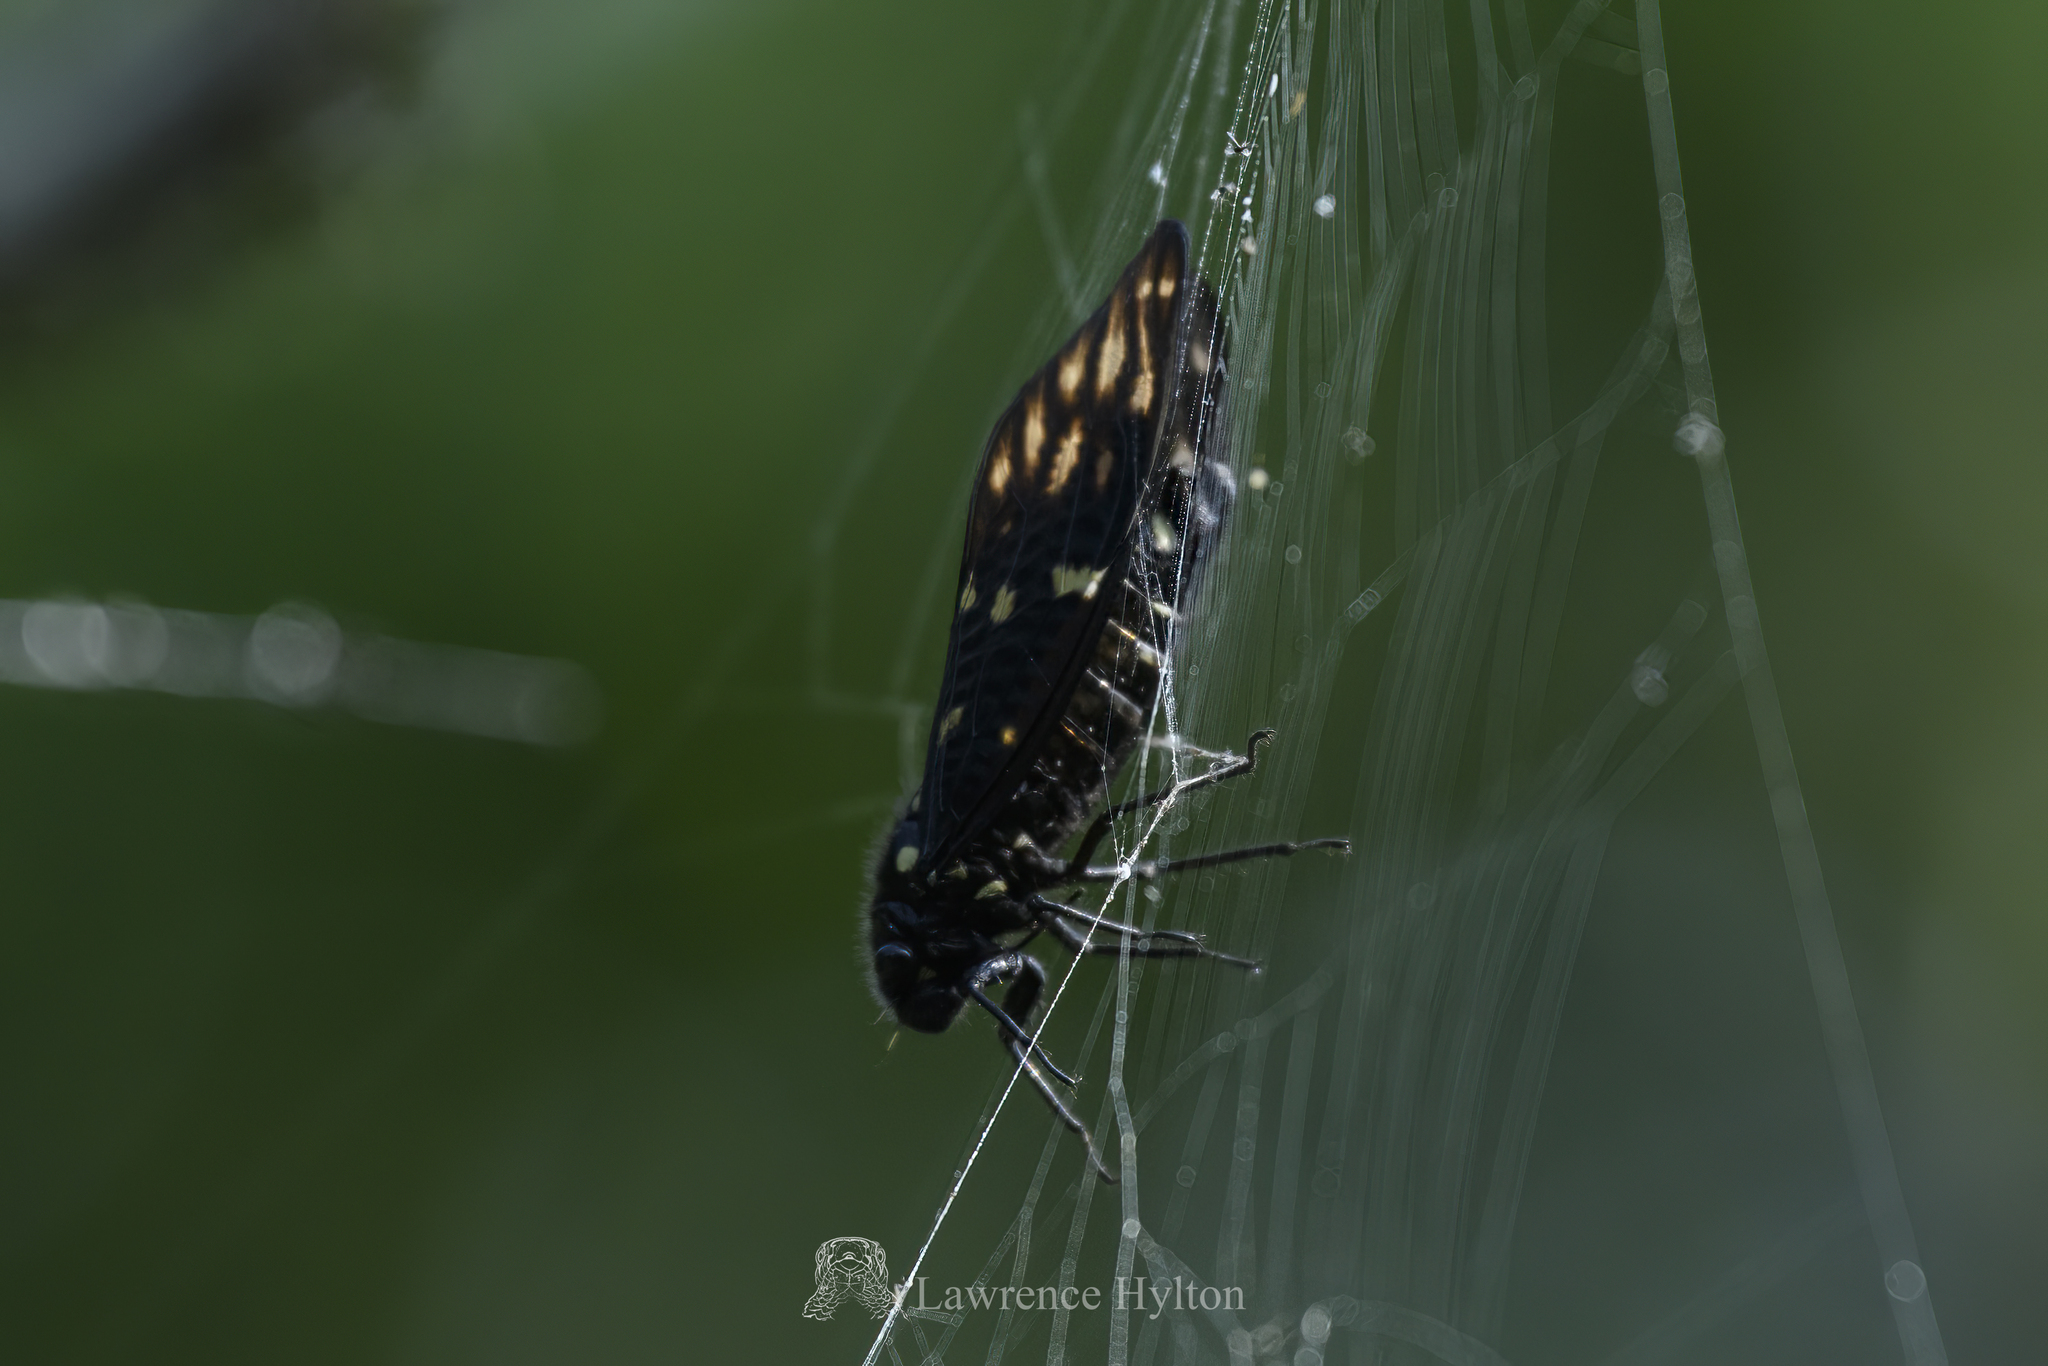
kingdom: Animalia
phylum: Arthropoda
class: Insecta
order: Hemiptera
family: Cicadidae
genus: Gaeana
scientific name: Gaeana maculata
